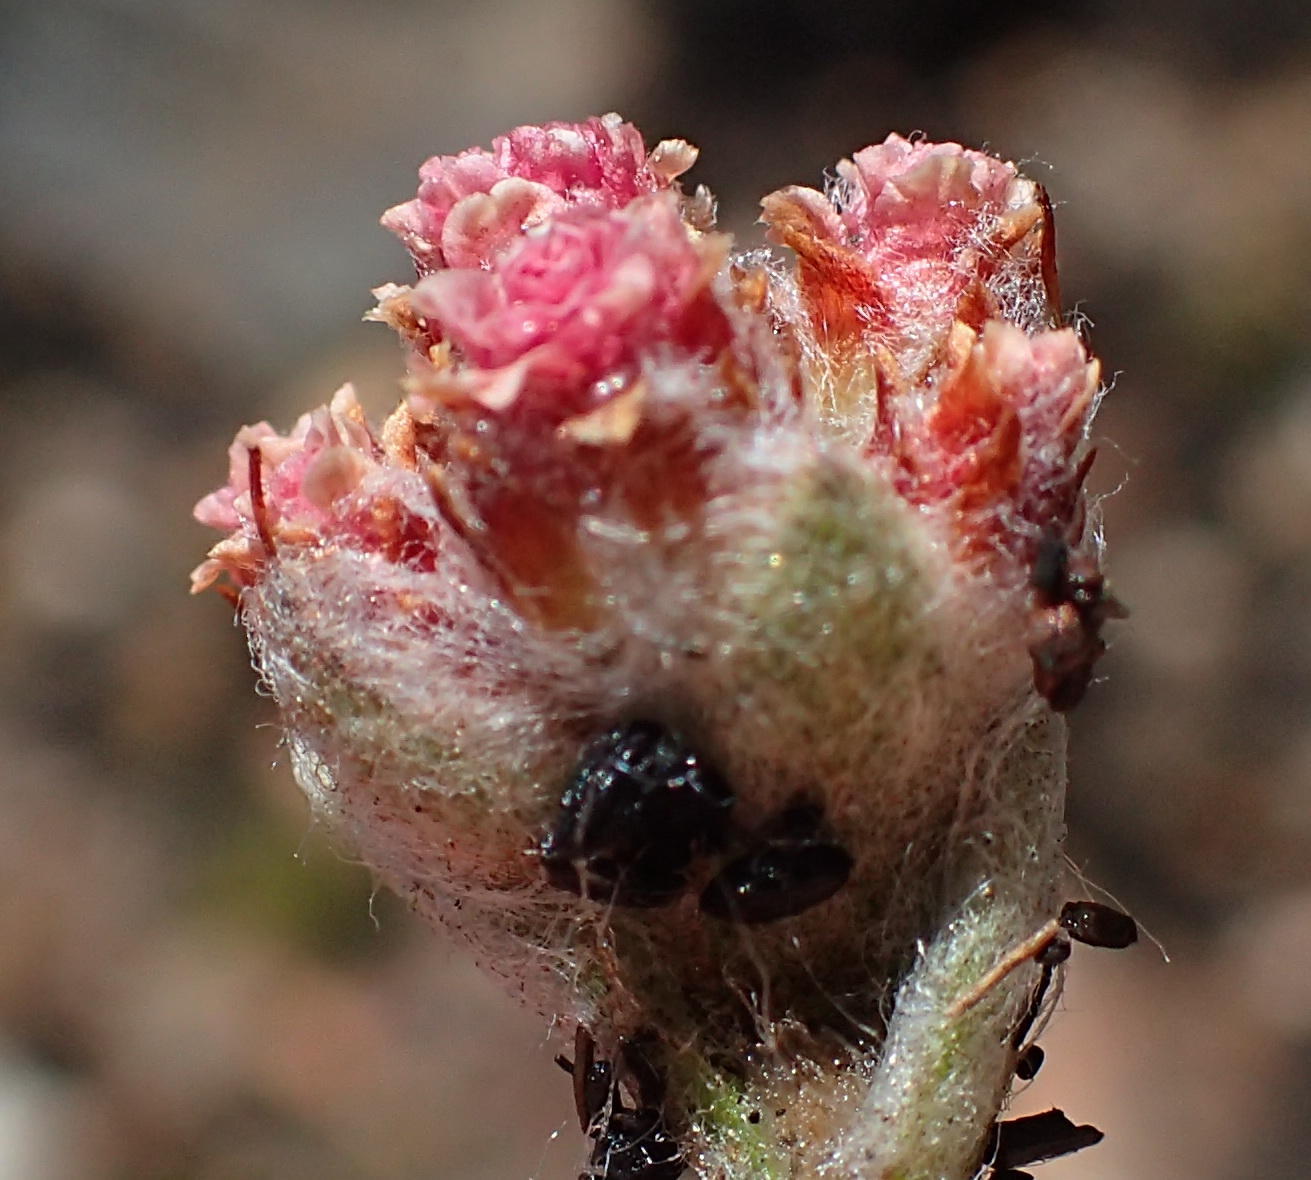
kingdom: Plantae
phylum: Tracheophyta
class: Magnoliopsida
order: Asterales
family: Asteraceae
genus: Helichrysum
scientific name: Helichrysum rotundifolium
